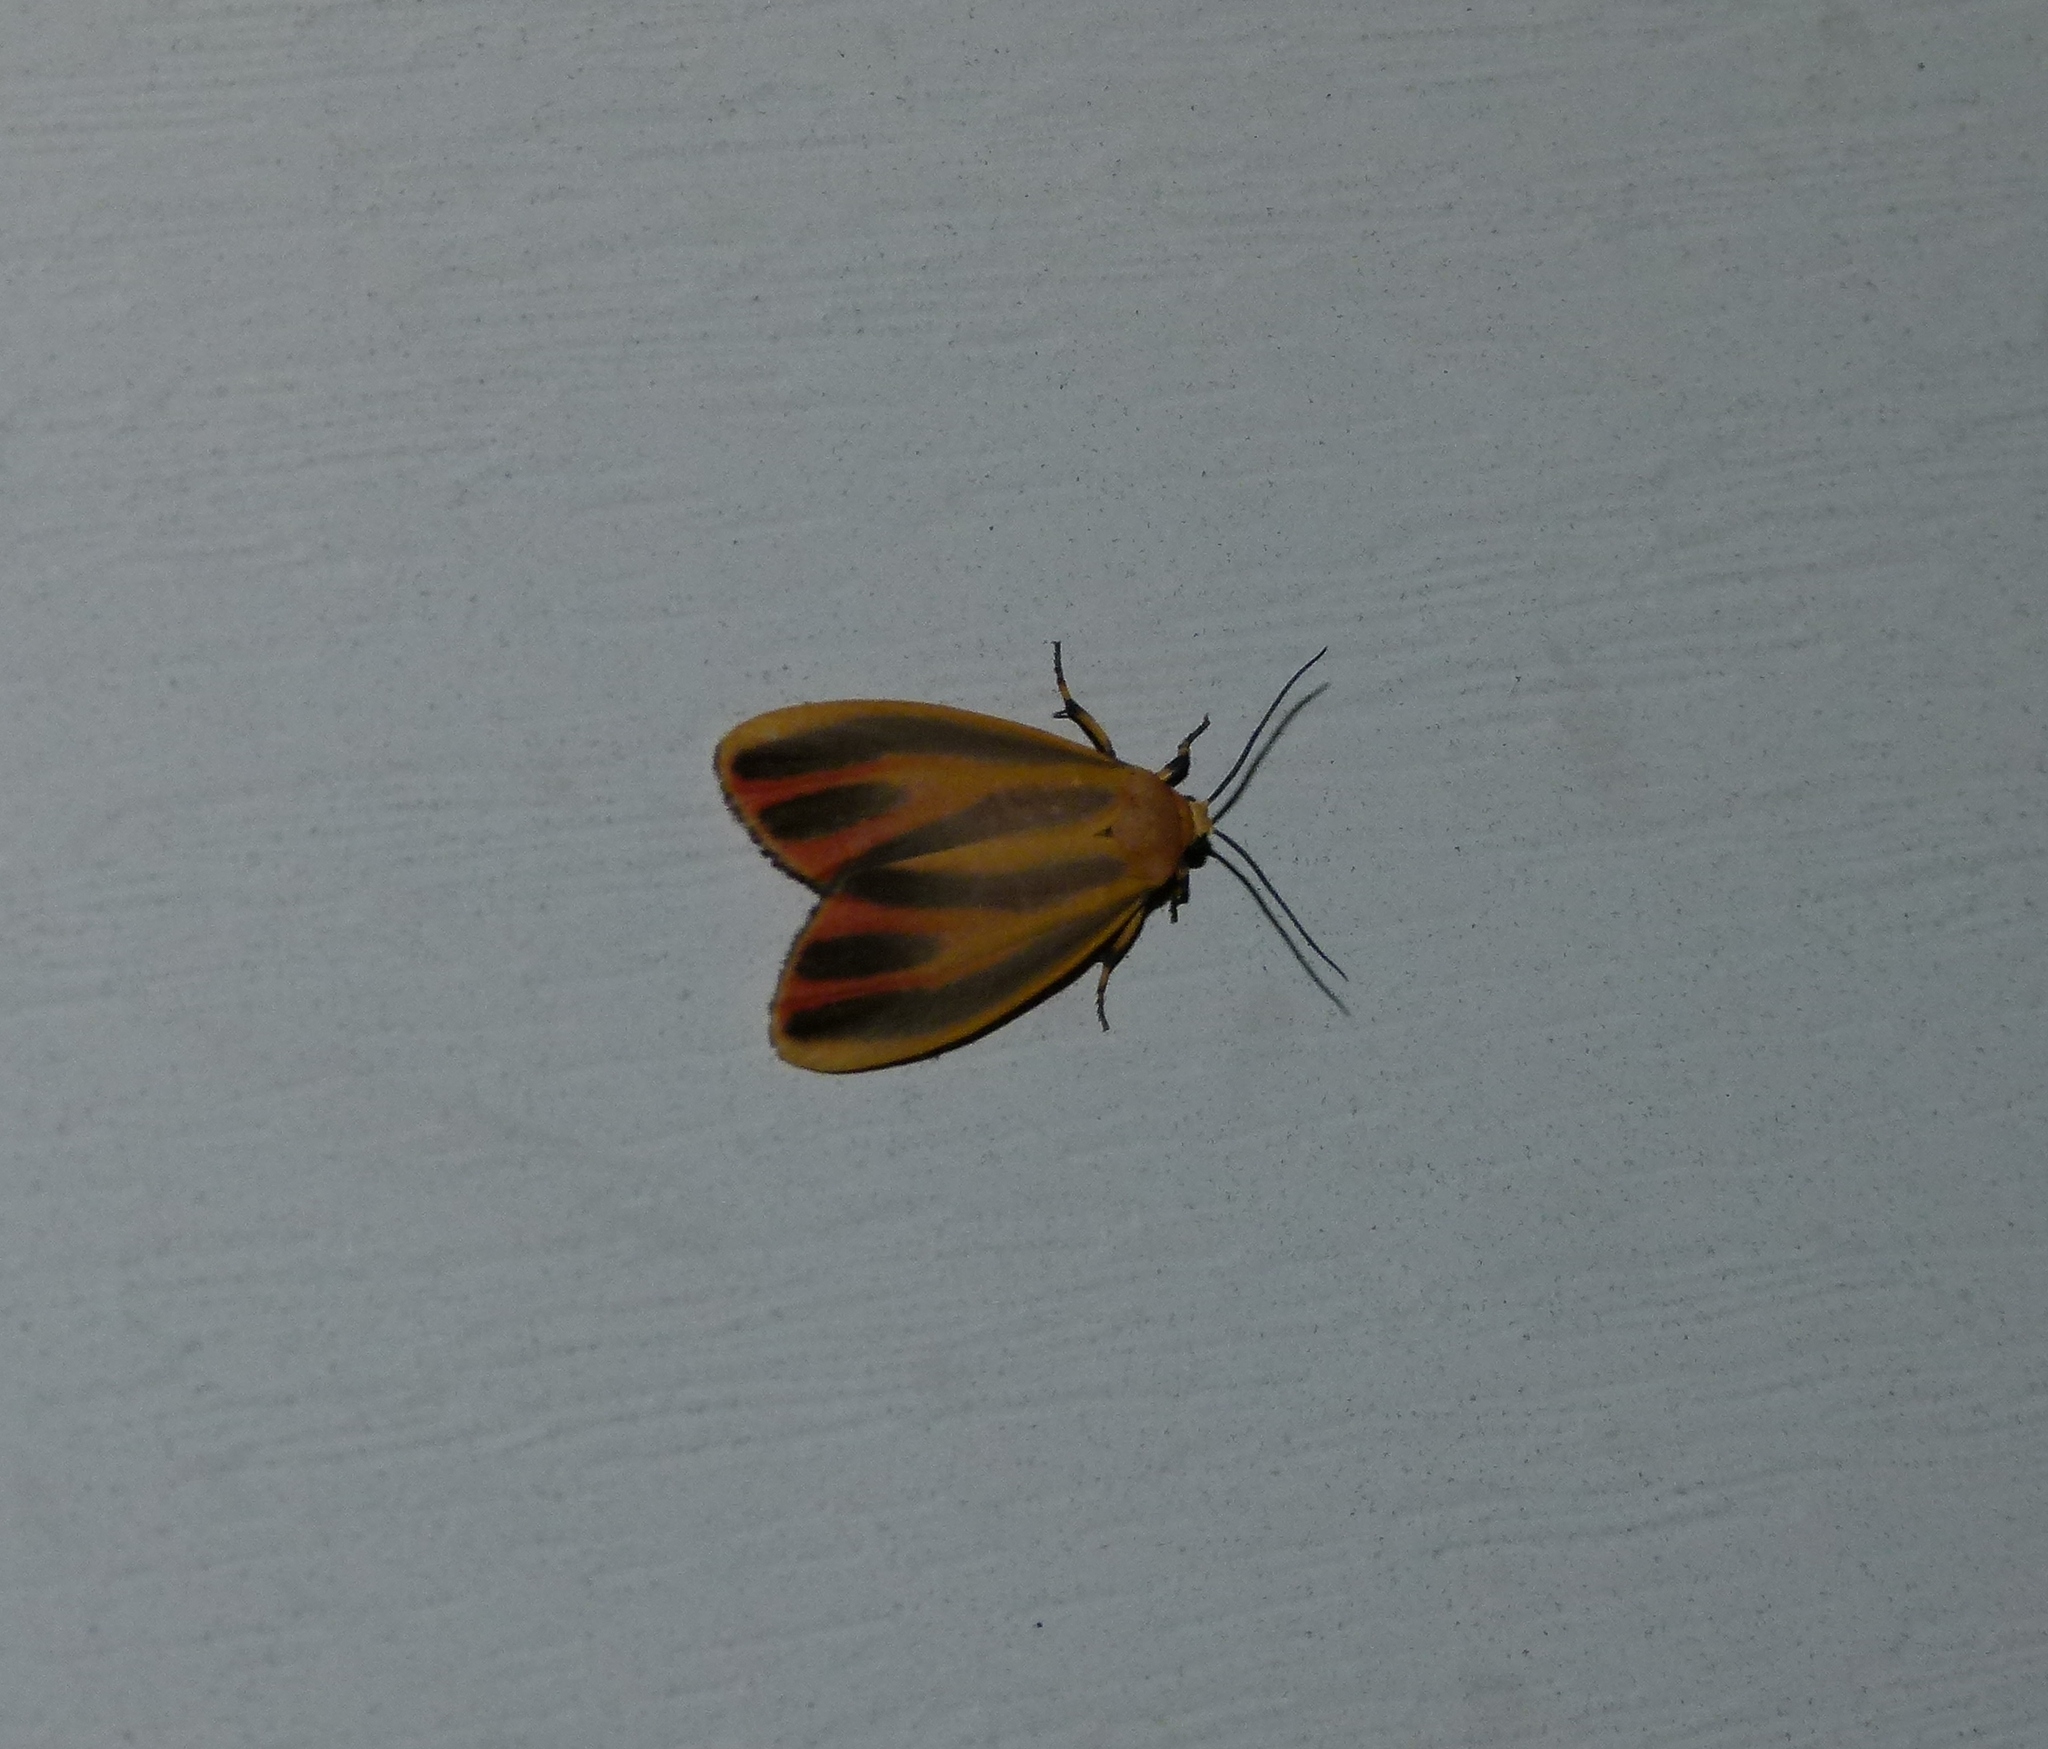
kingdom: Animalia
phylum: Arthropoda
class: Insecta
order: Lepidoptera
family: Erebidae
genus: Hypoprepia
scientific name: Hypoprepia fucosa
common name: Painted lichen moth
